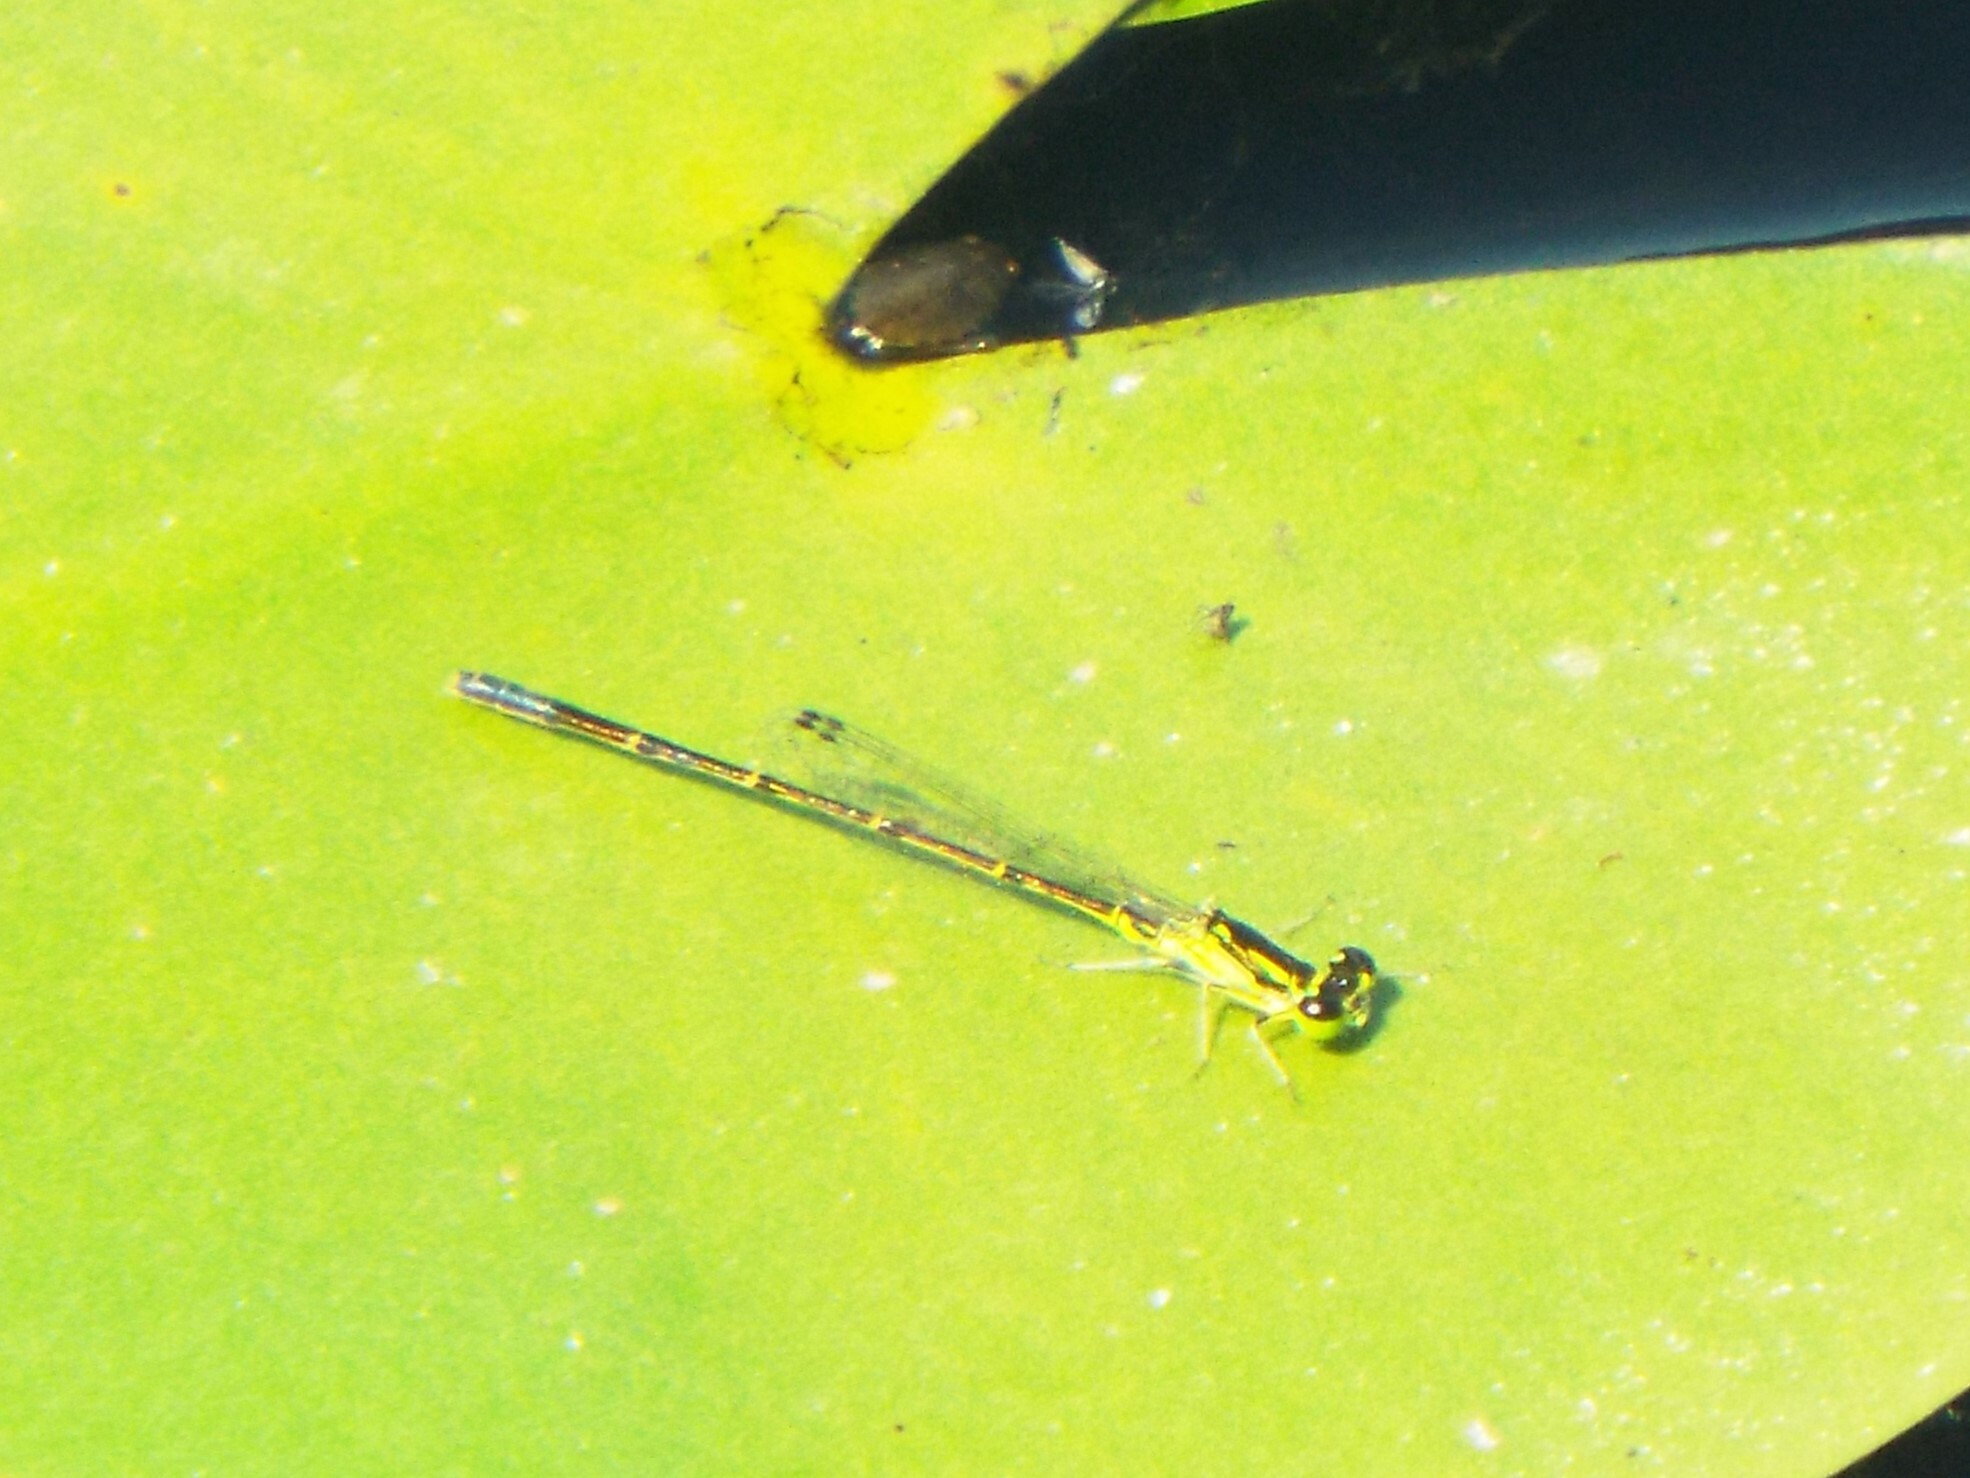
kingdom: Animalia
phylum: Arthropoda
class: Insecta
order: Odonata
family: Coenagrionidae
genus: Ischnura
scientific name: Ischnura posita
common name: Fragile forktail
